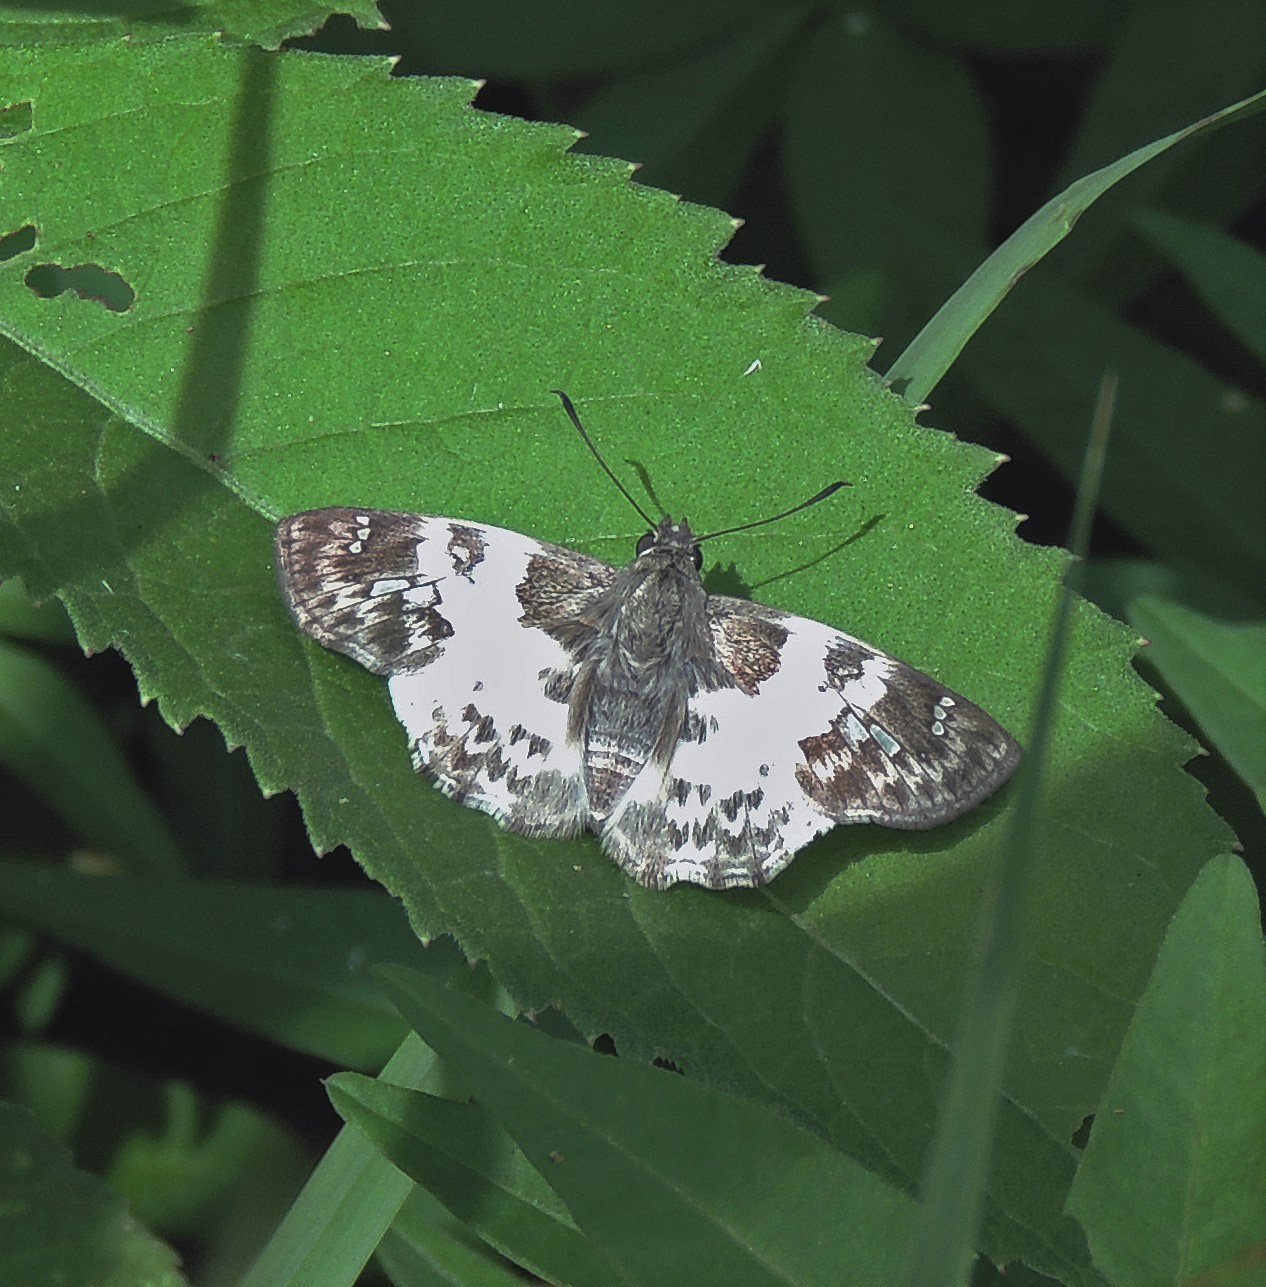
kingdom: Animalia
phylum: Arthropoda
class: Insecta
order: Lepidoptera
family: Hesperiidae
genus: Polyctor
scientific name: Polyctor polyctor
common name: Polyctor tufted-skipper
